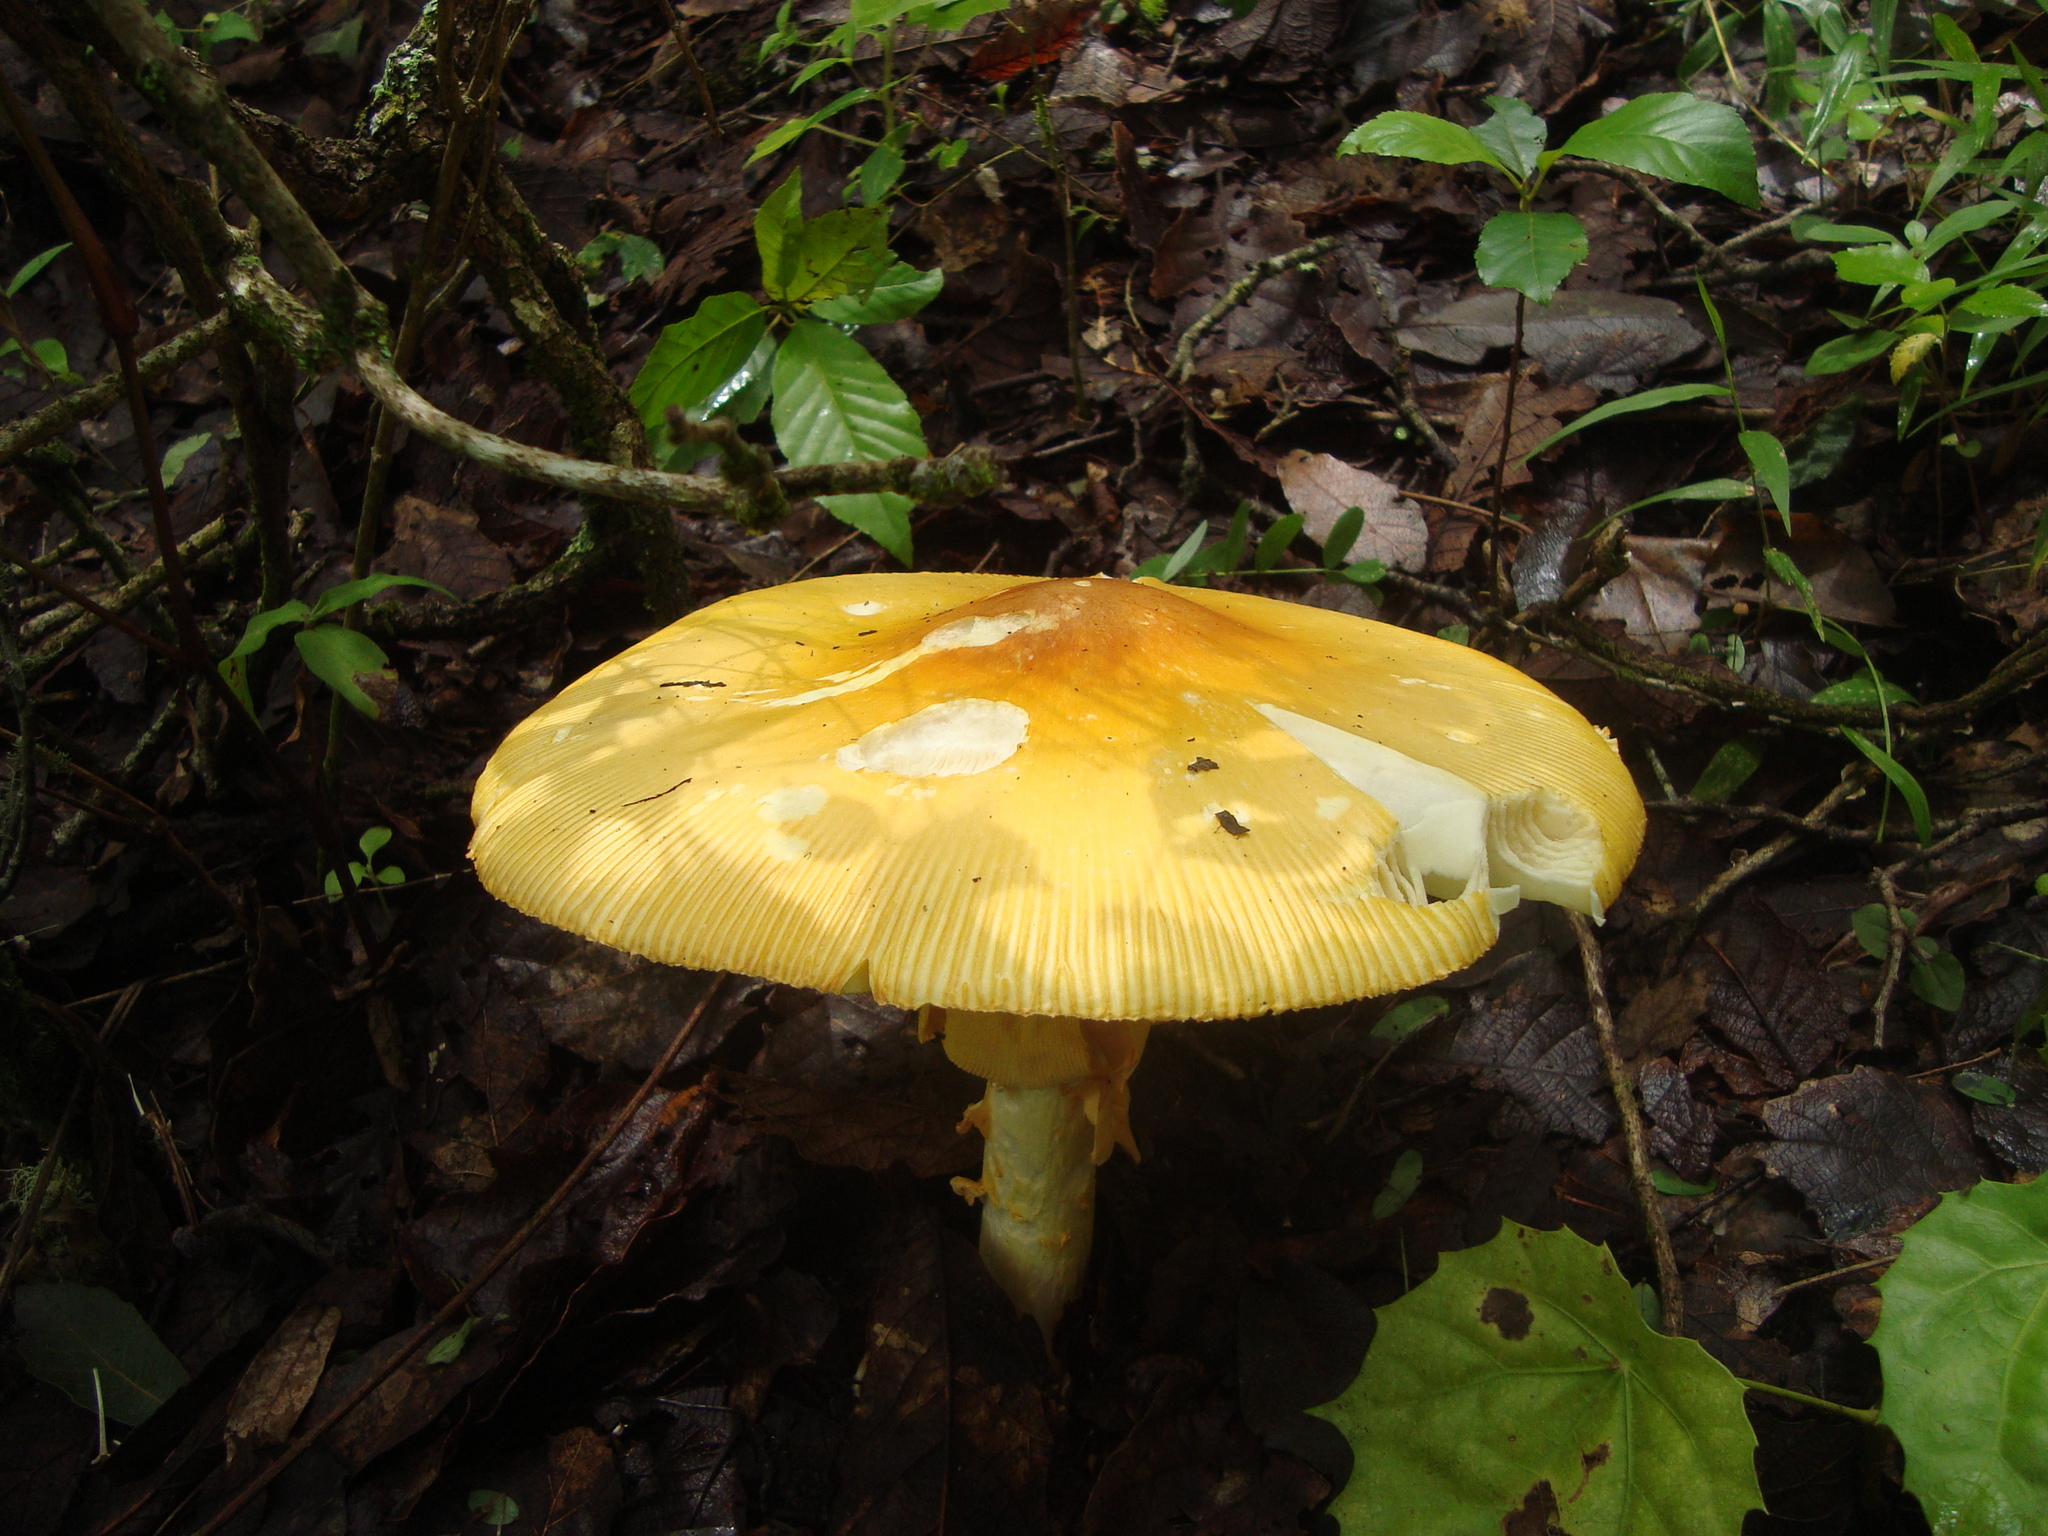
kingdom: Fungi
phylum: Basidiomycota
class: Agaricomycetes
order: Agaricales
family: Amanitaceae
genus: Amanita
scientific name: Amanita laurae
